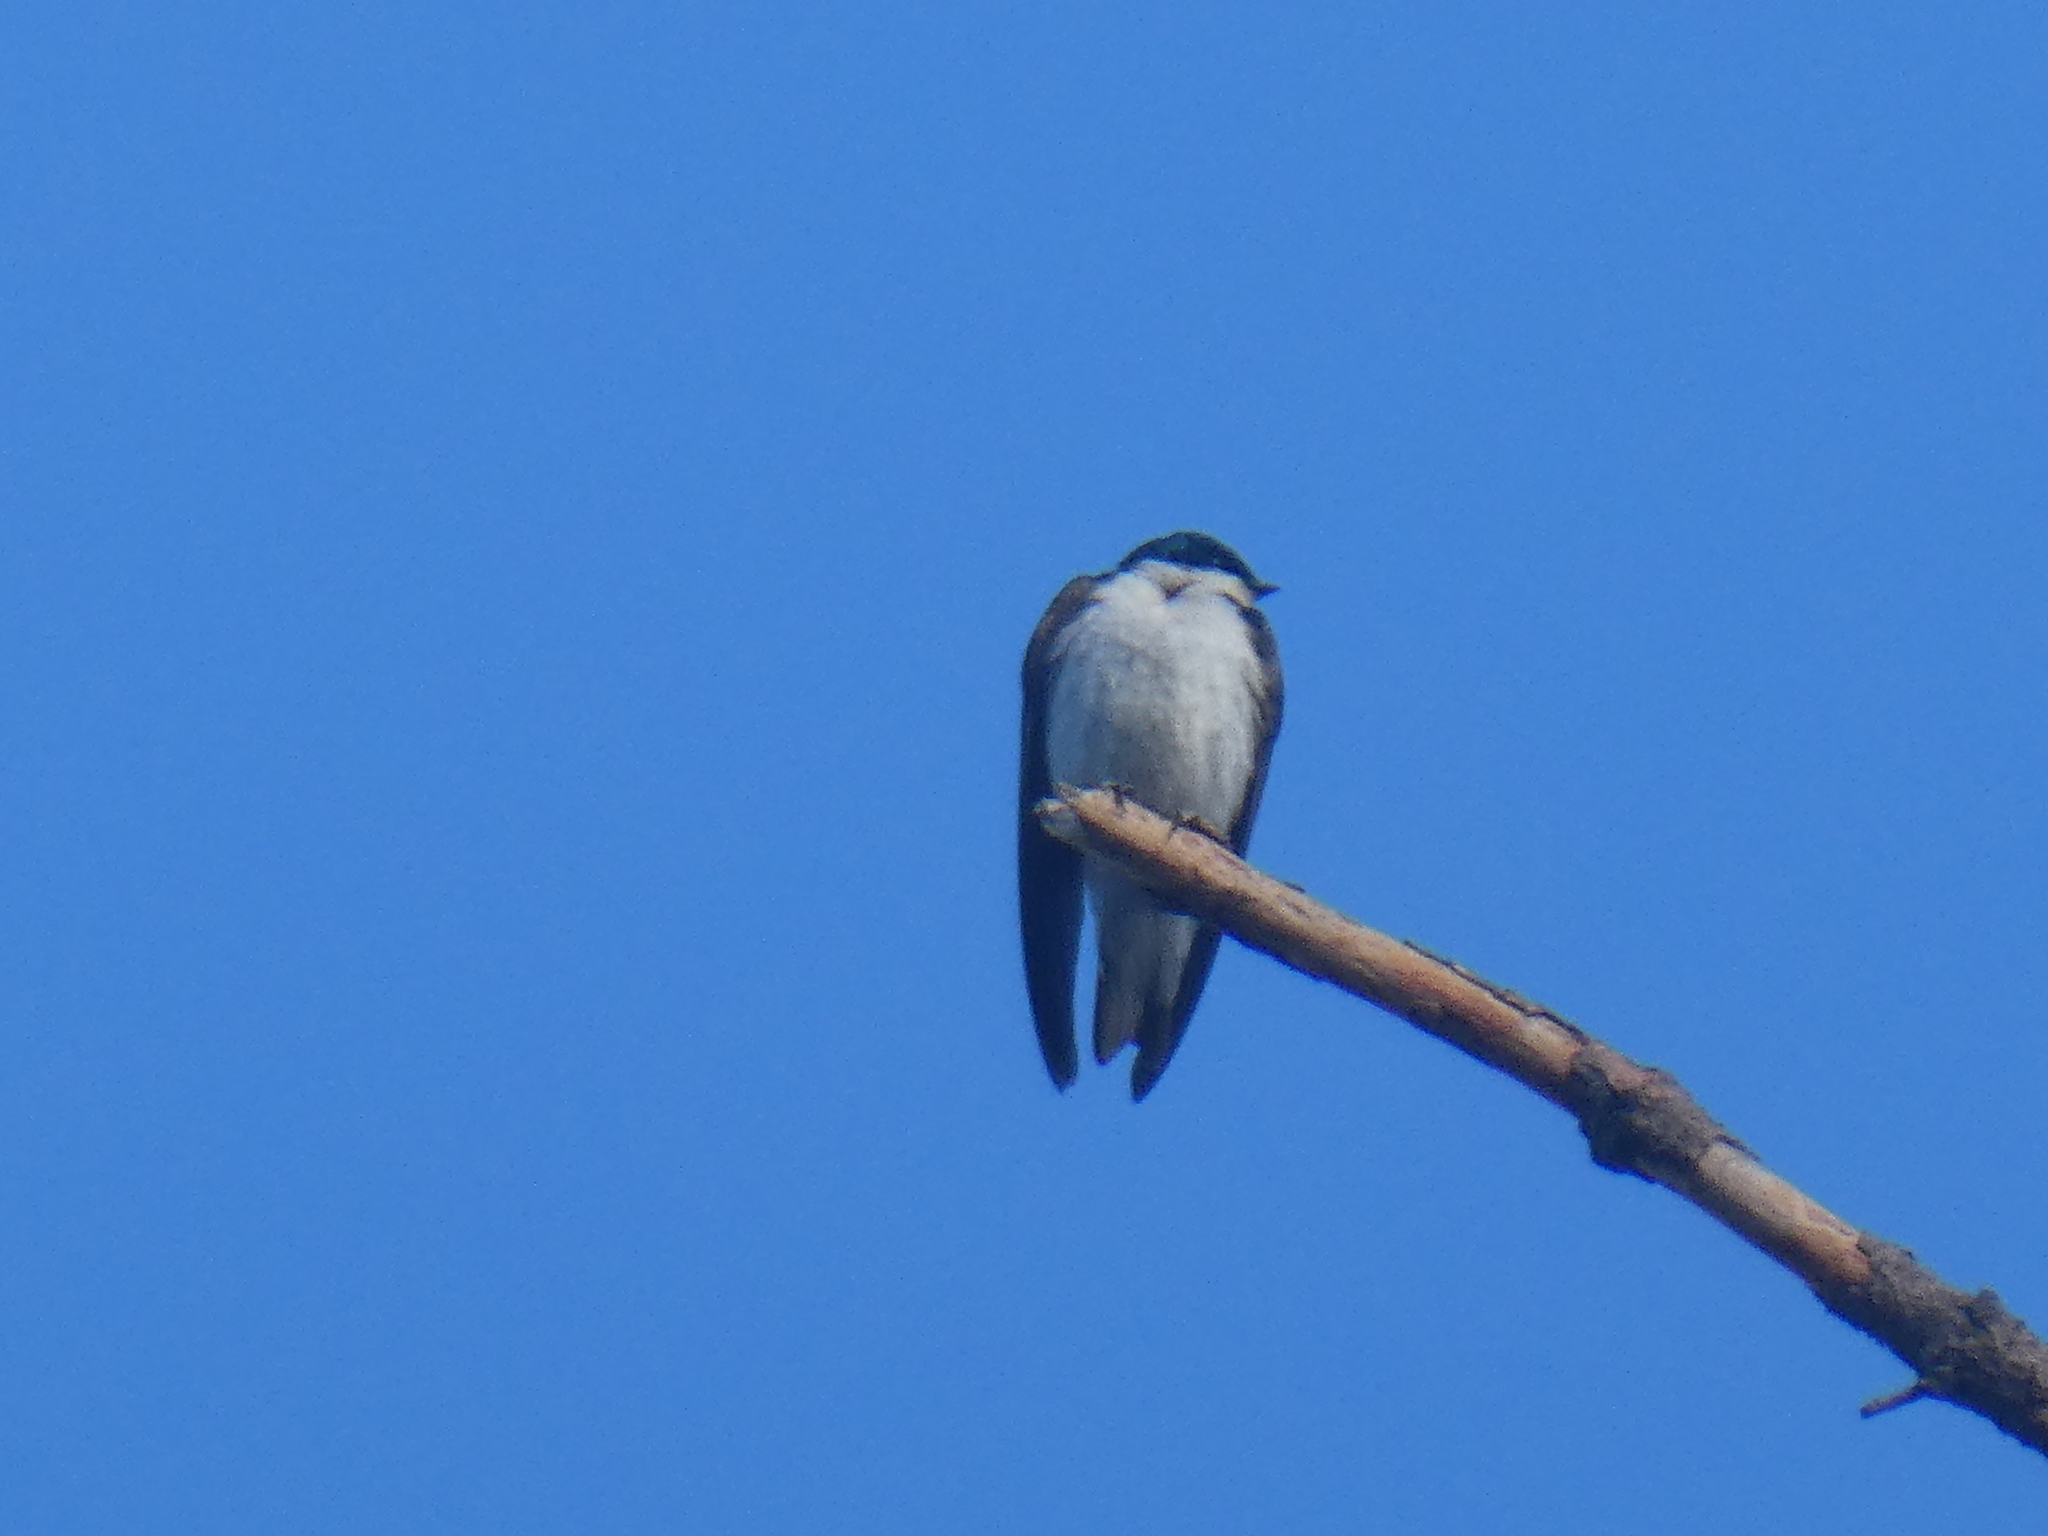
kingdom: Animalia
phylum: Chordata
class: Aves
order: Passeriformes
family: Hirundinidae
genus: Tachycineta
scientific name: Tachycineta bicolor
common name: Tree swallow
